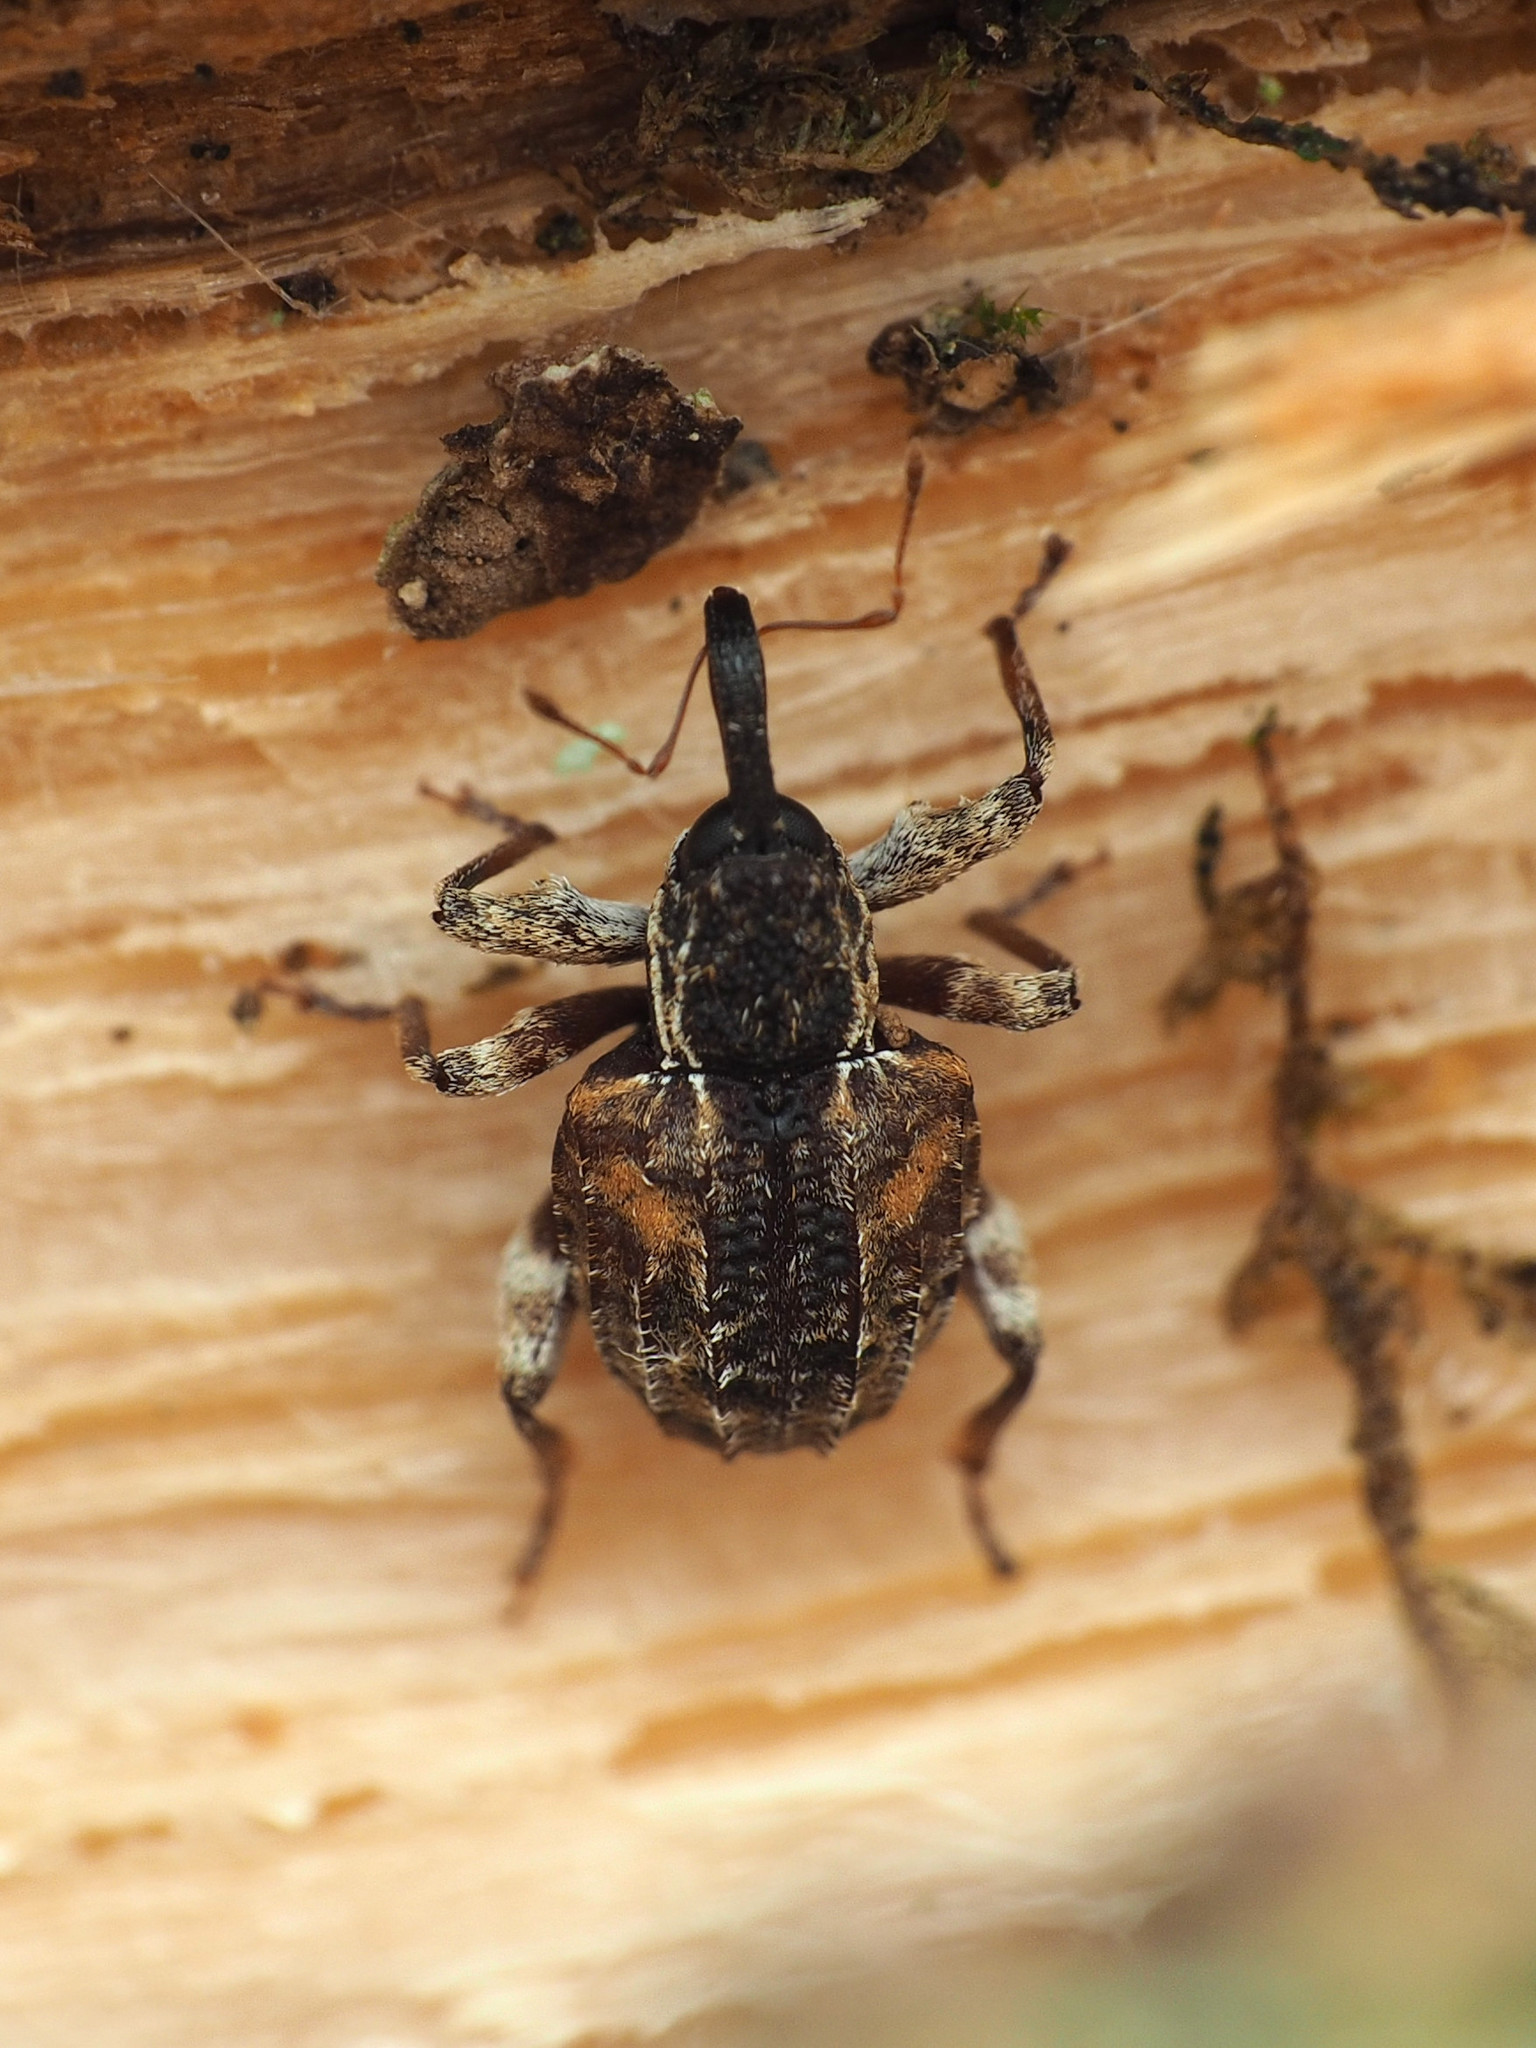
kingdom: Animalia
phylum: Arthropoda
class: Insecta
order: Coleoptera
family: Curculionidae
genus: Conotrachelus
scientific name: Conotrachelus anaglypticus
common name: Cambium curculio
